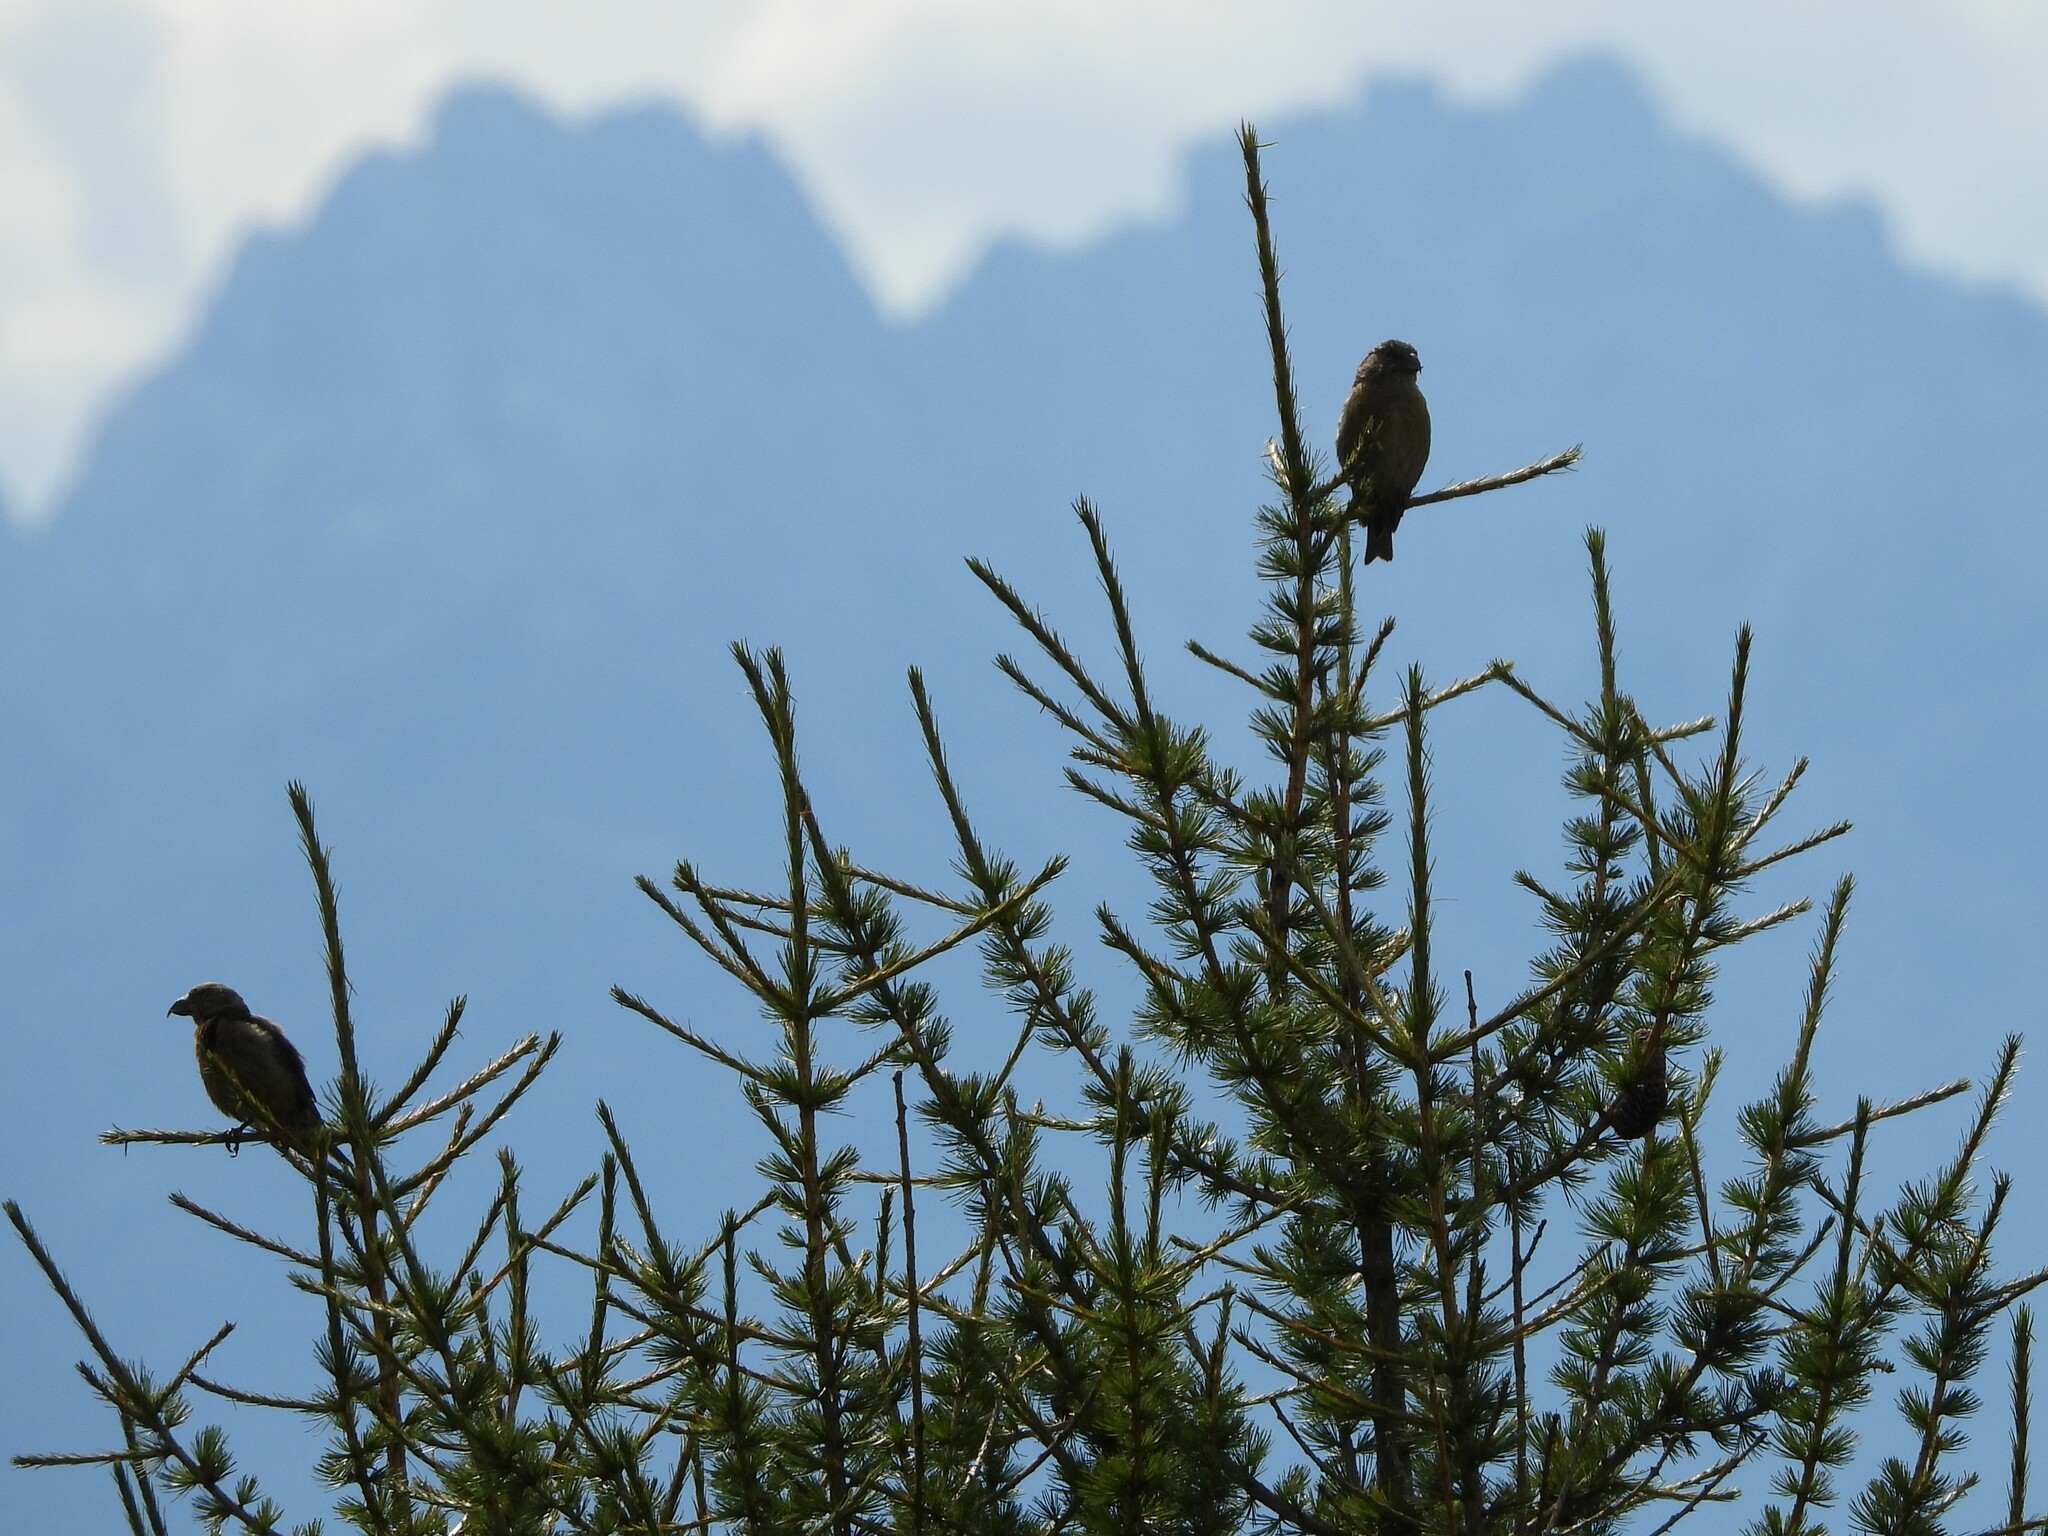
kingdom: Animalia
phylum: Chordata
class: Aves
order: Passeriformes
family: Fringillidae
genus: Loxia
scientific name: Loxia curvirostra
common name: Red crossbill
